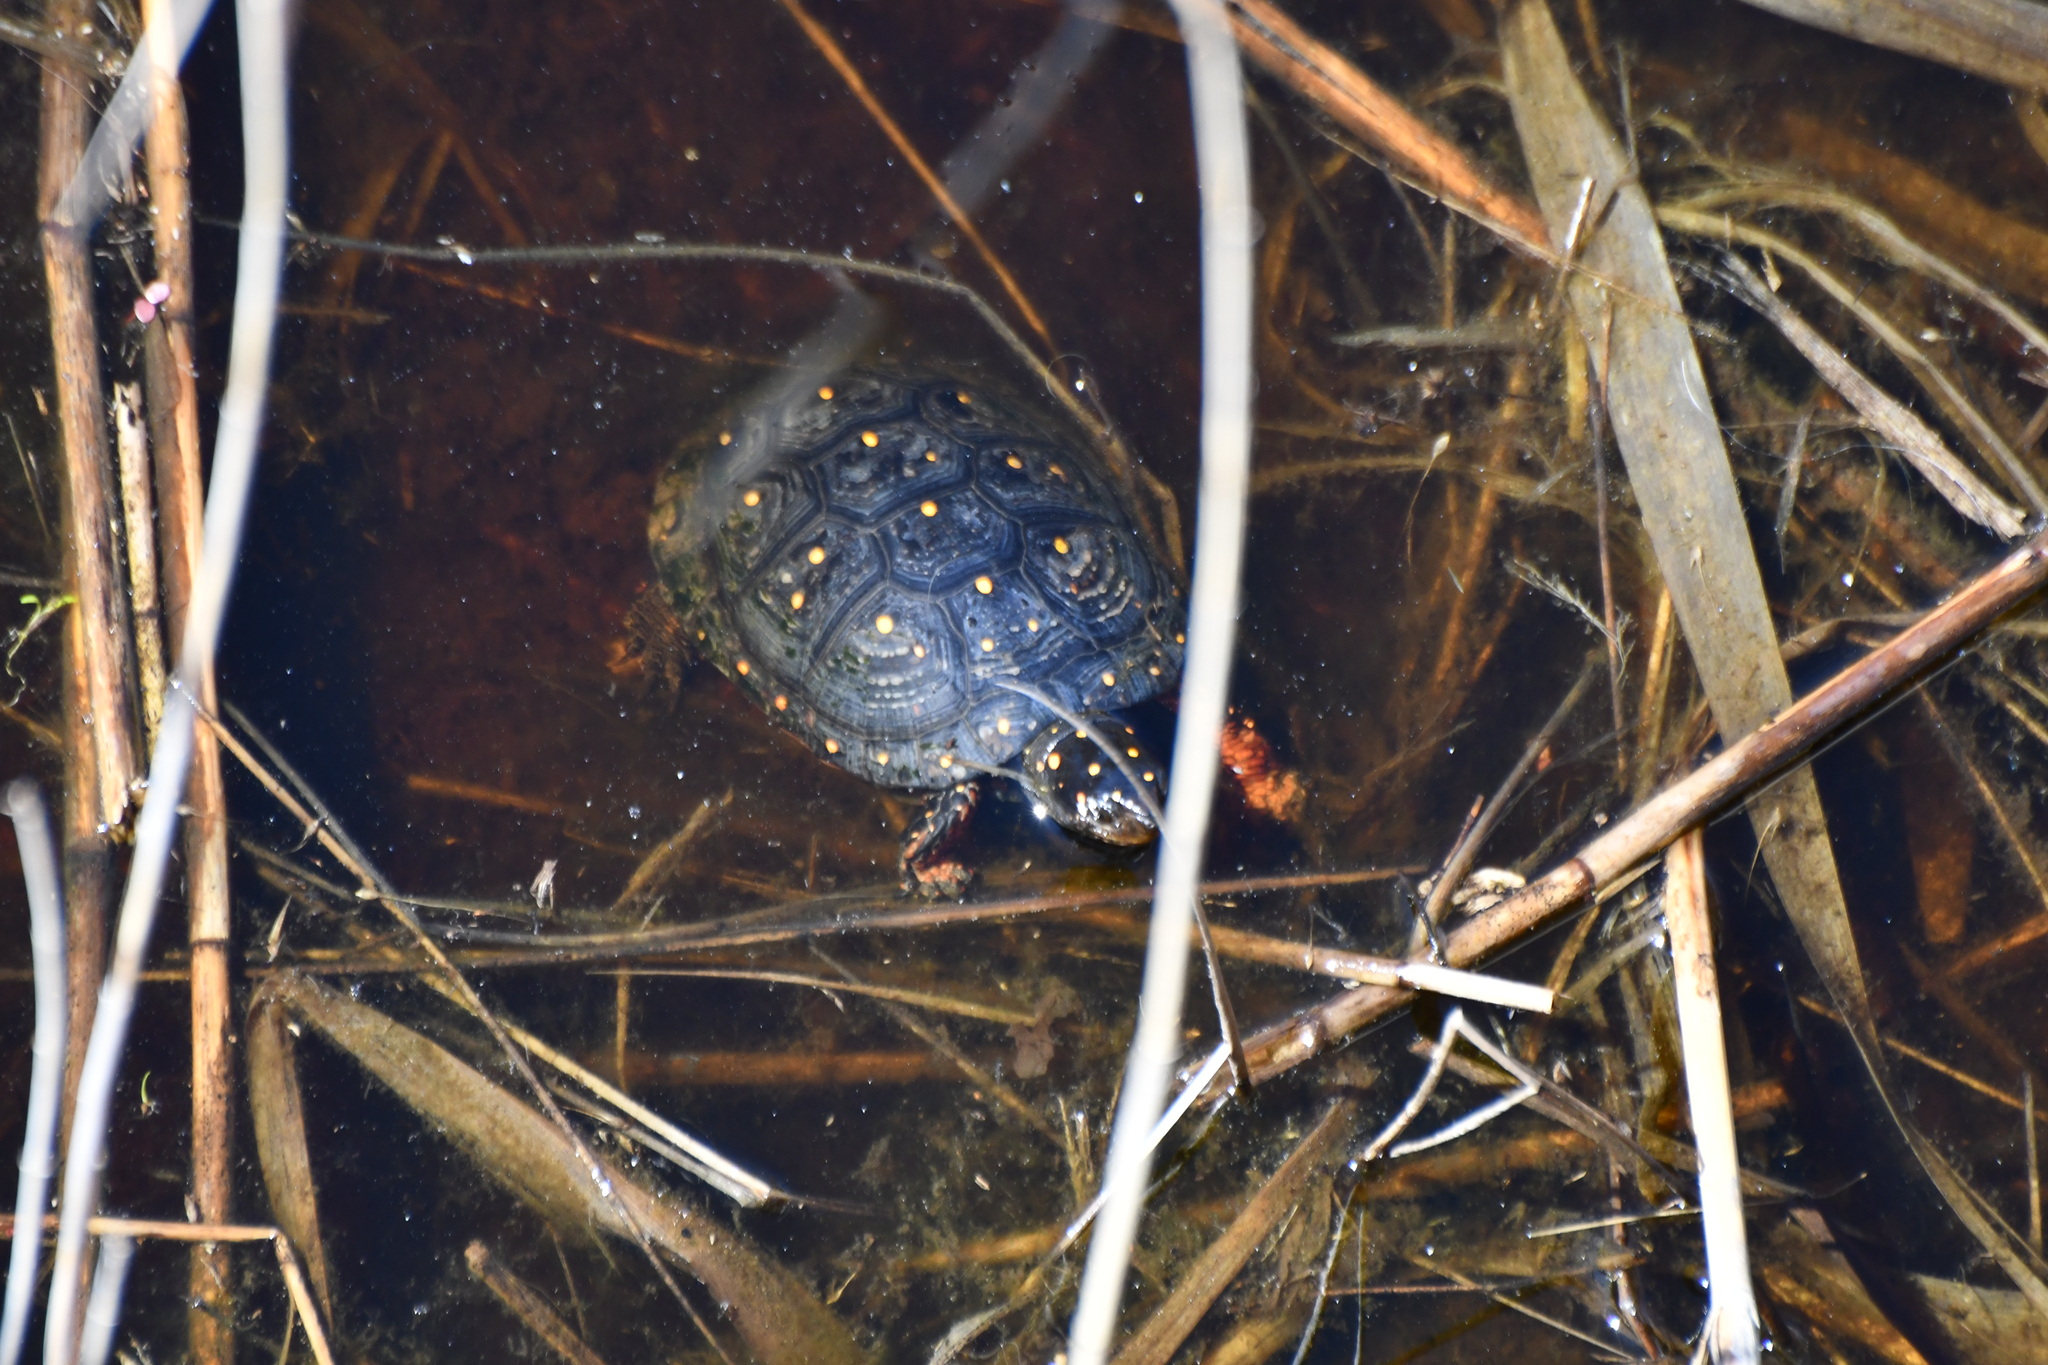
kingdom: Animalia
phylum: Chordata
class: Testudines
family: Emydidae
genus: Clemmys
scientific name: Clemmys guttata
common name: Spotted turtle
